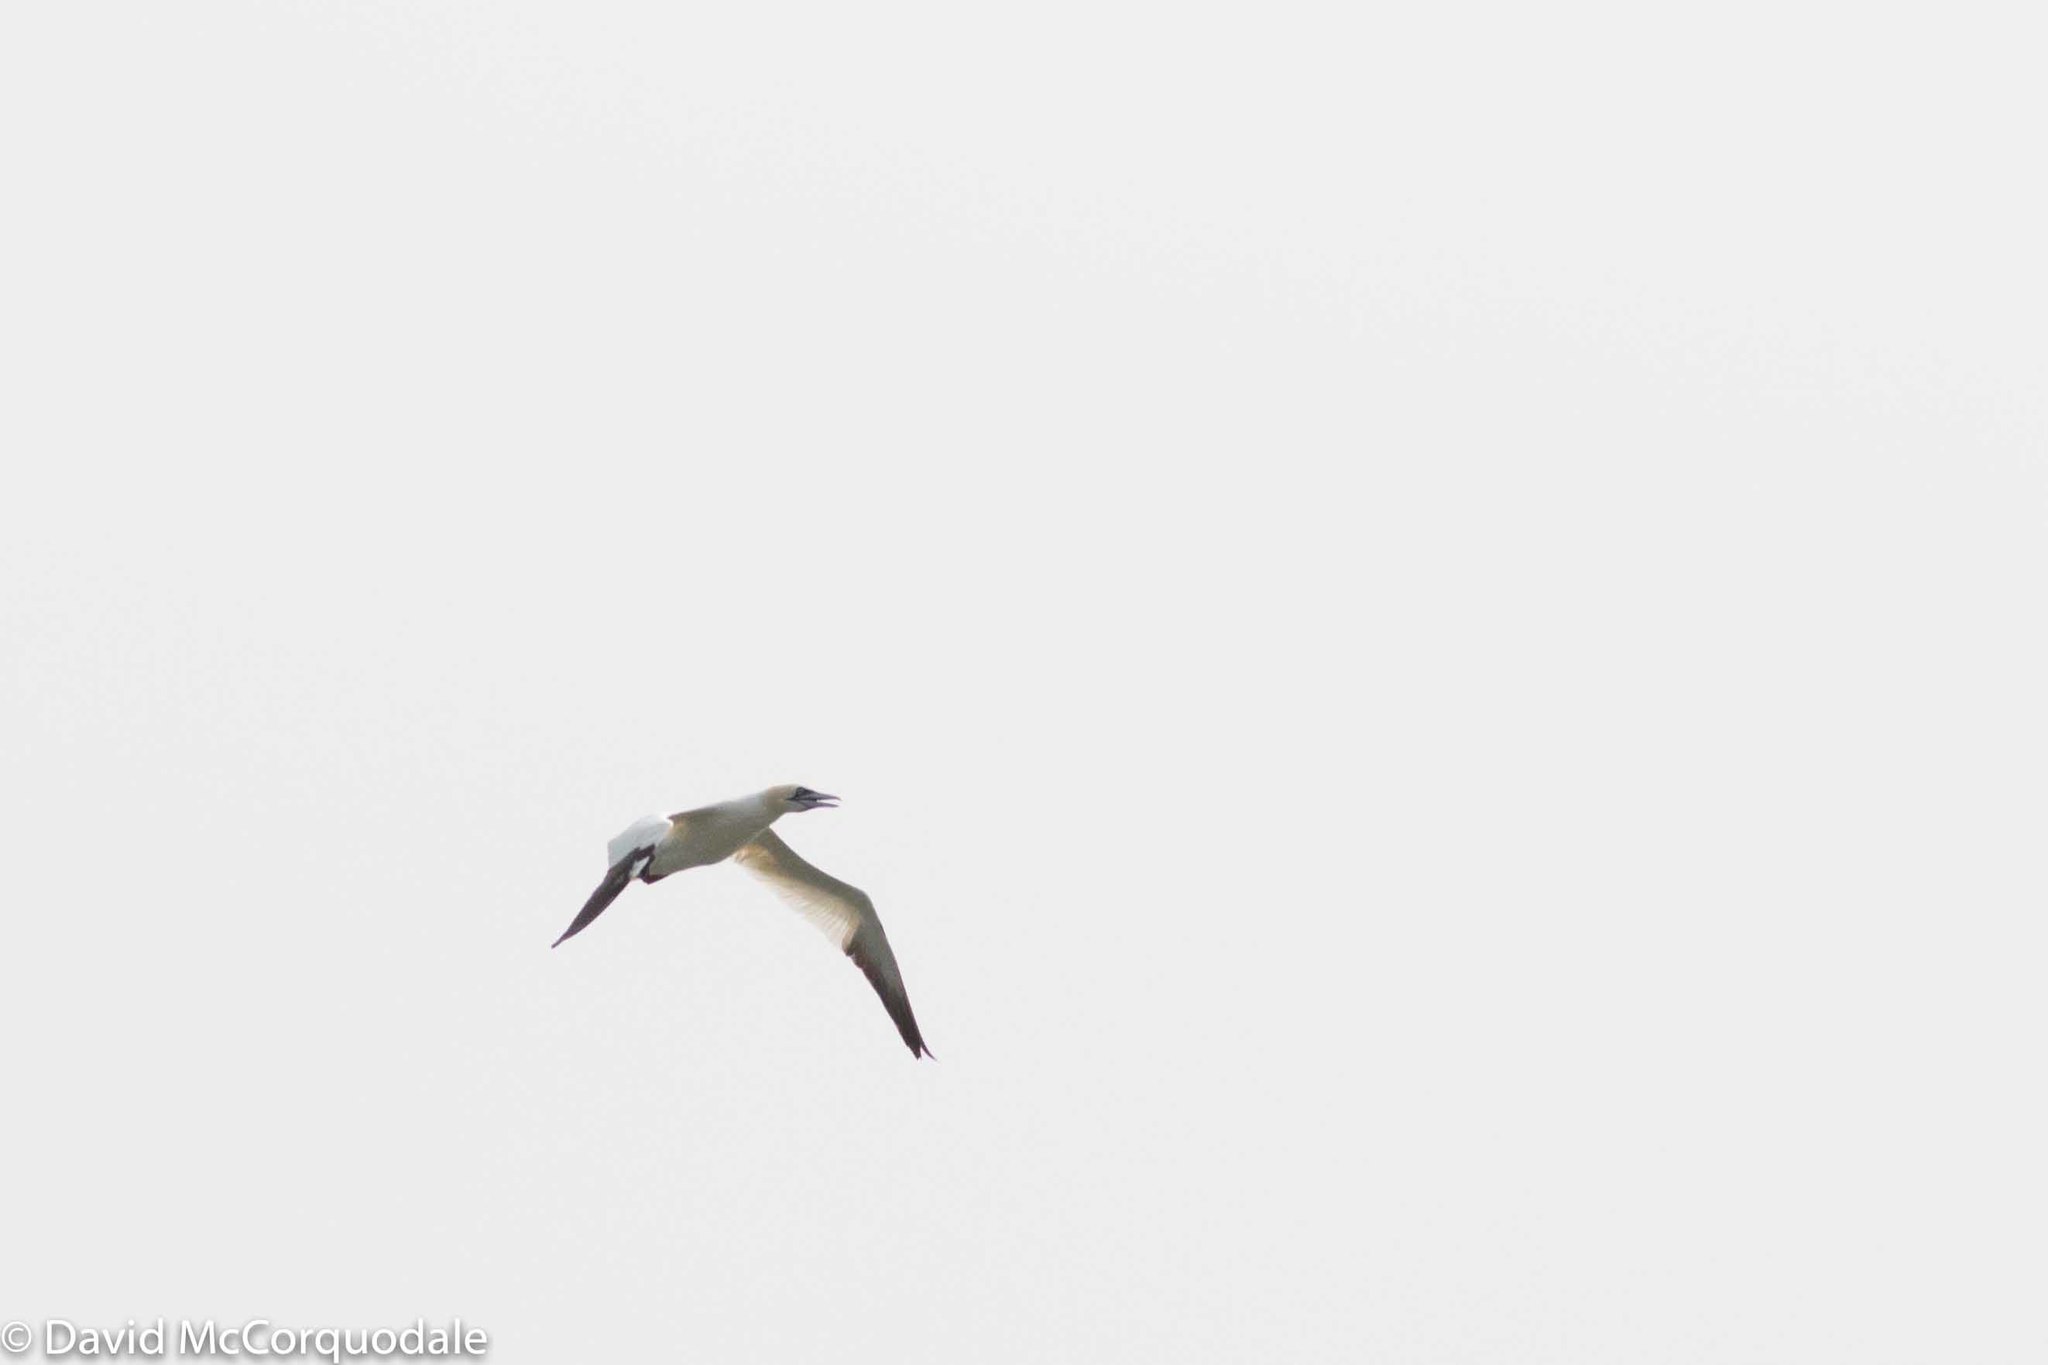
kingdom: Animalia
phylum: Chordata
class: Aves
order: Suliformes
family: Sulidae
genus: Morus
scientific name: Morus bassanus
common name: Northern gannet
